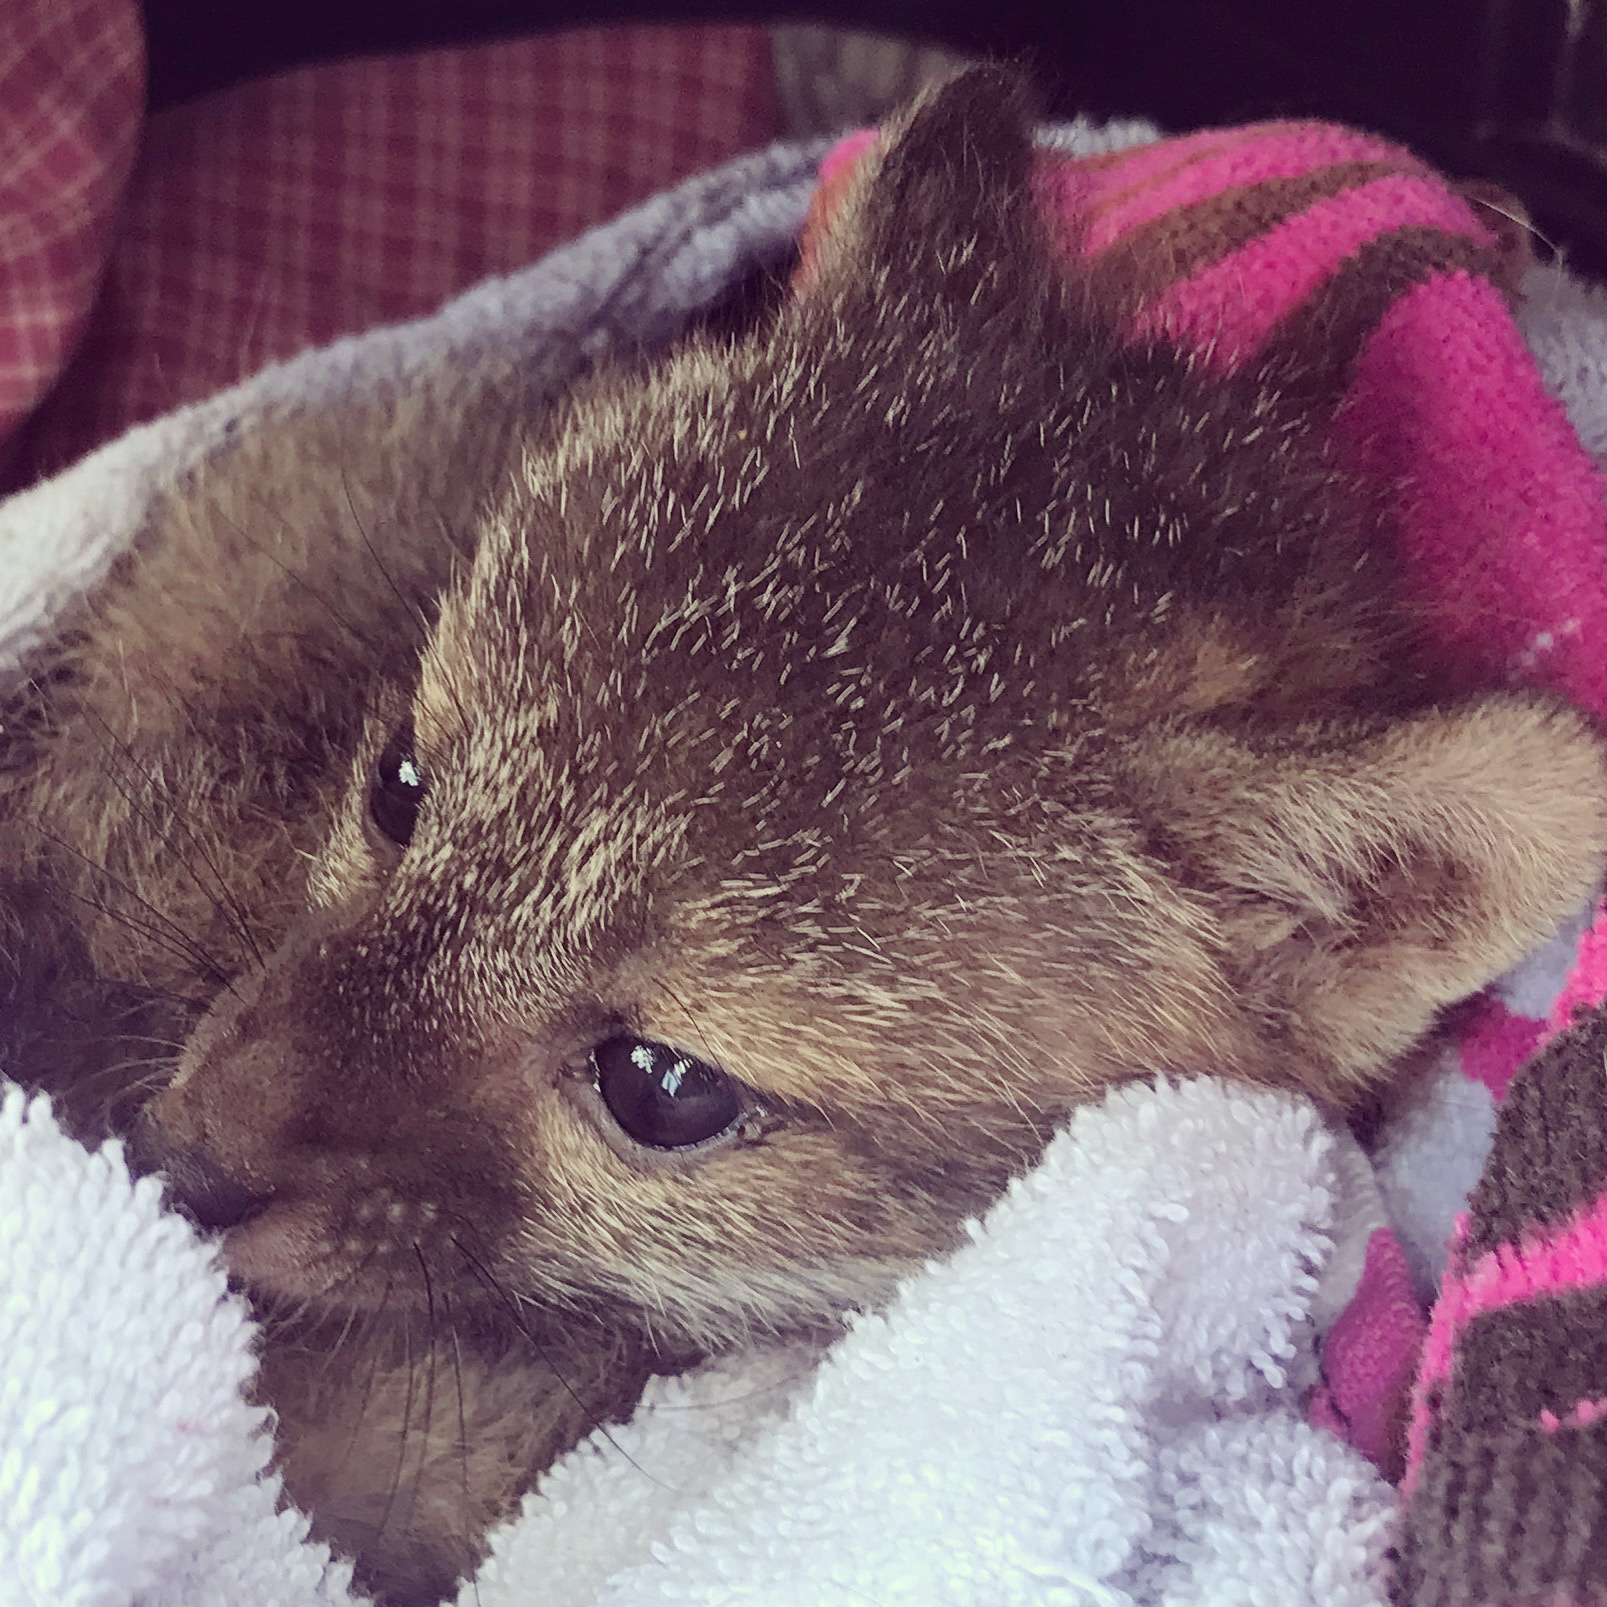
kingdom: Animalia
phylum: Chordata
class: Mammalia
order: Carnivora
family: Canidae
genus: Urocyon
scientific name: Urocyon cinereoargenteus
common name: Gray fox
